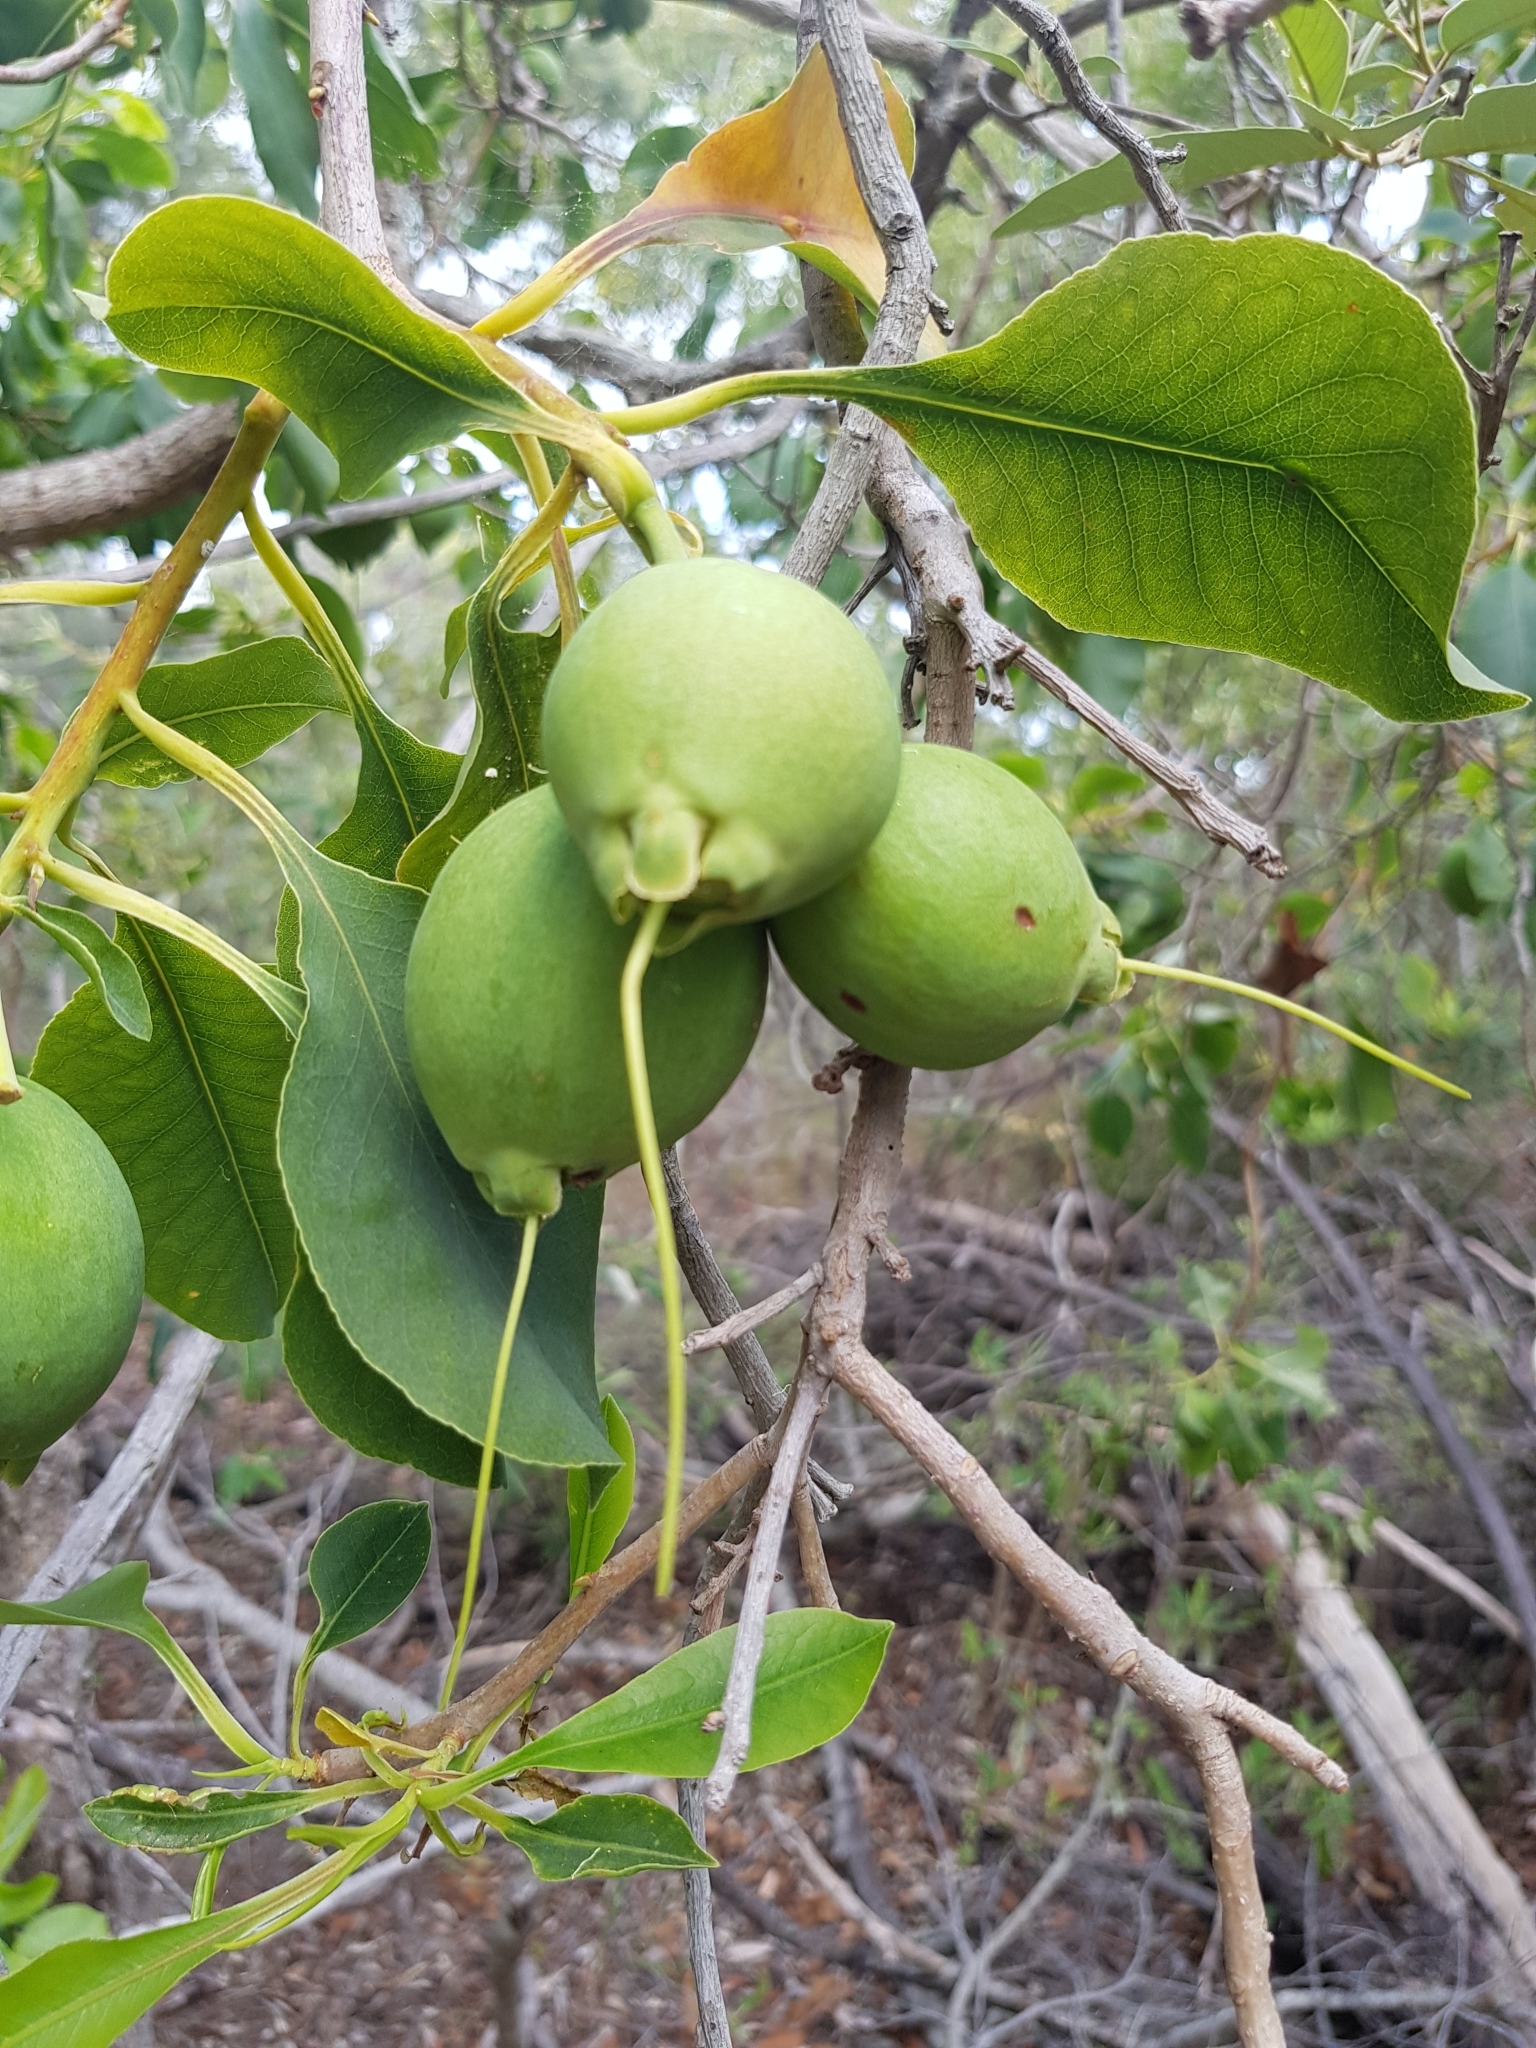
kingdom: Plantae
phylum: Tracheophyta
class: Magnoliopsida
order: Ericales
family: Lecythidaceae
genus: Planchonia
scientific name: Planchonia careya
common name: Cockatoo-apple
